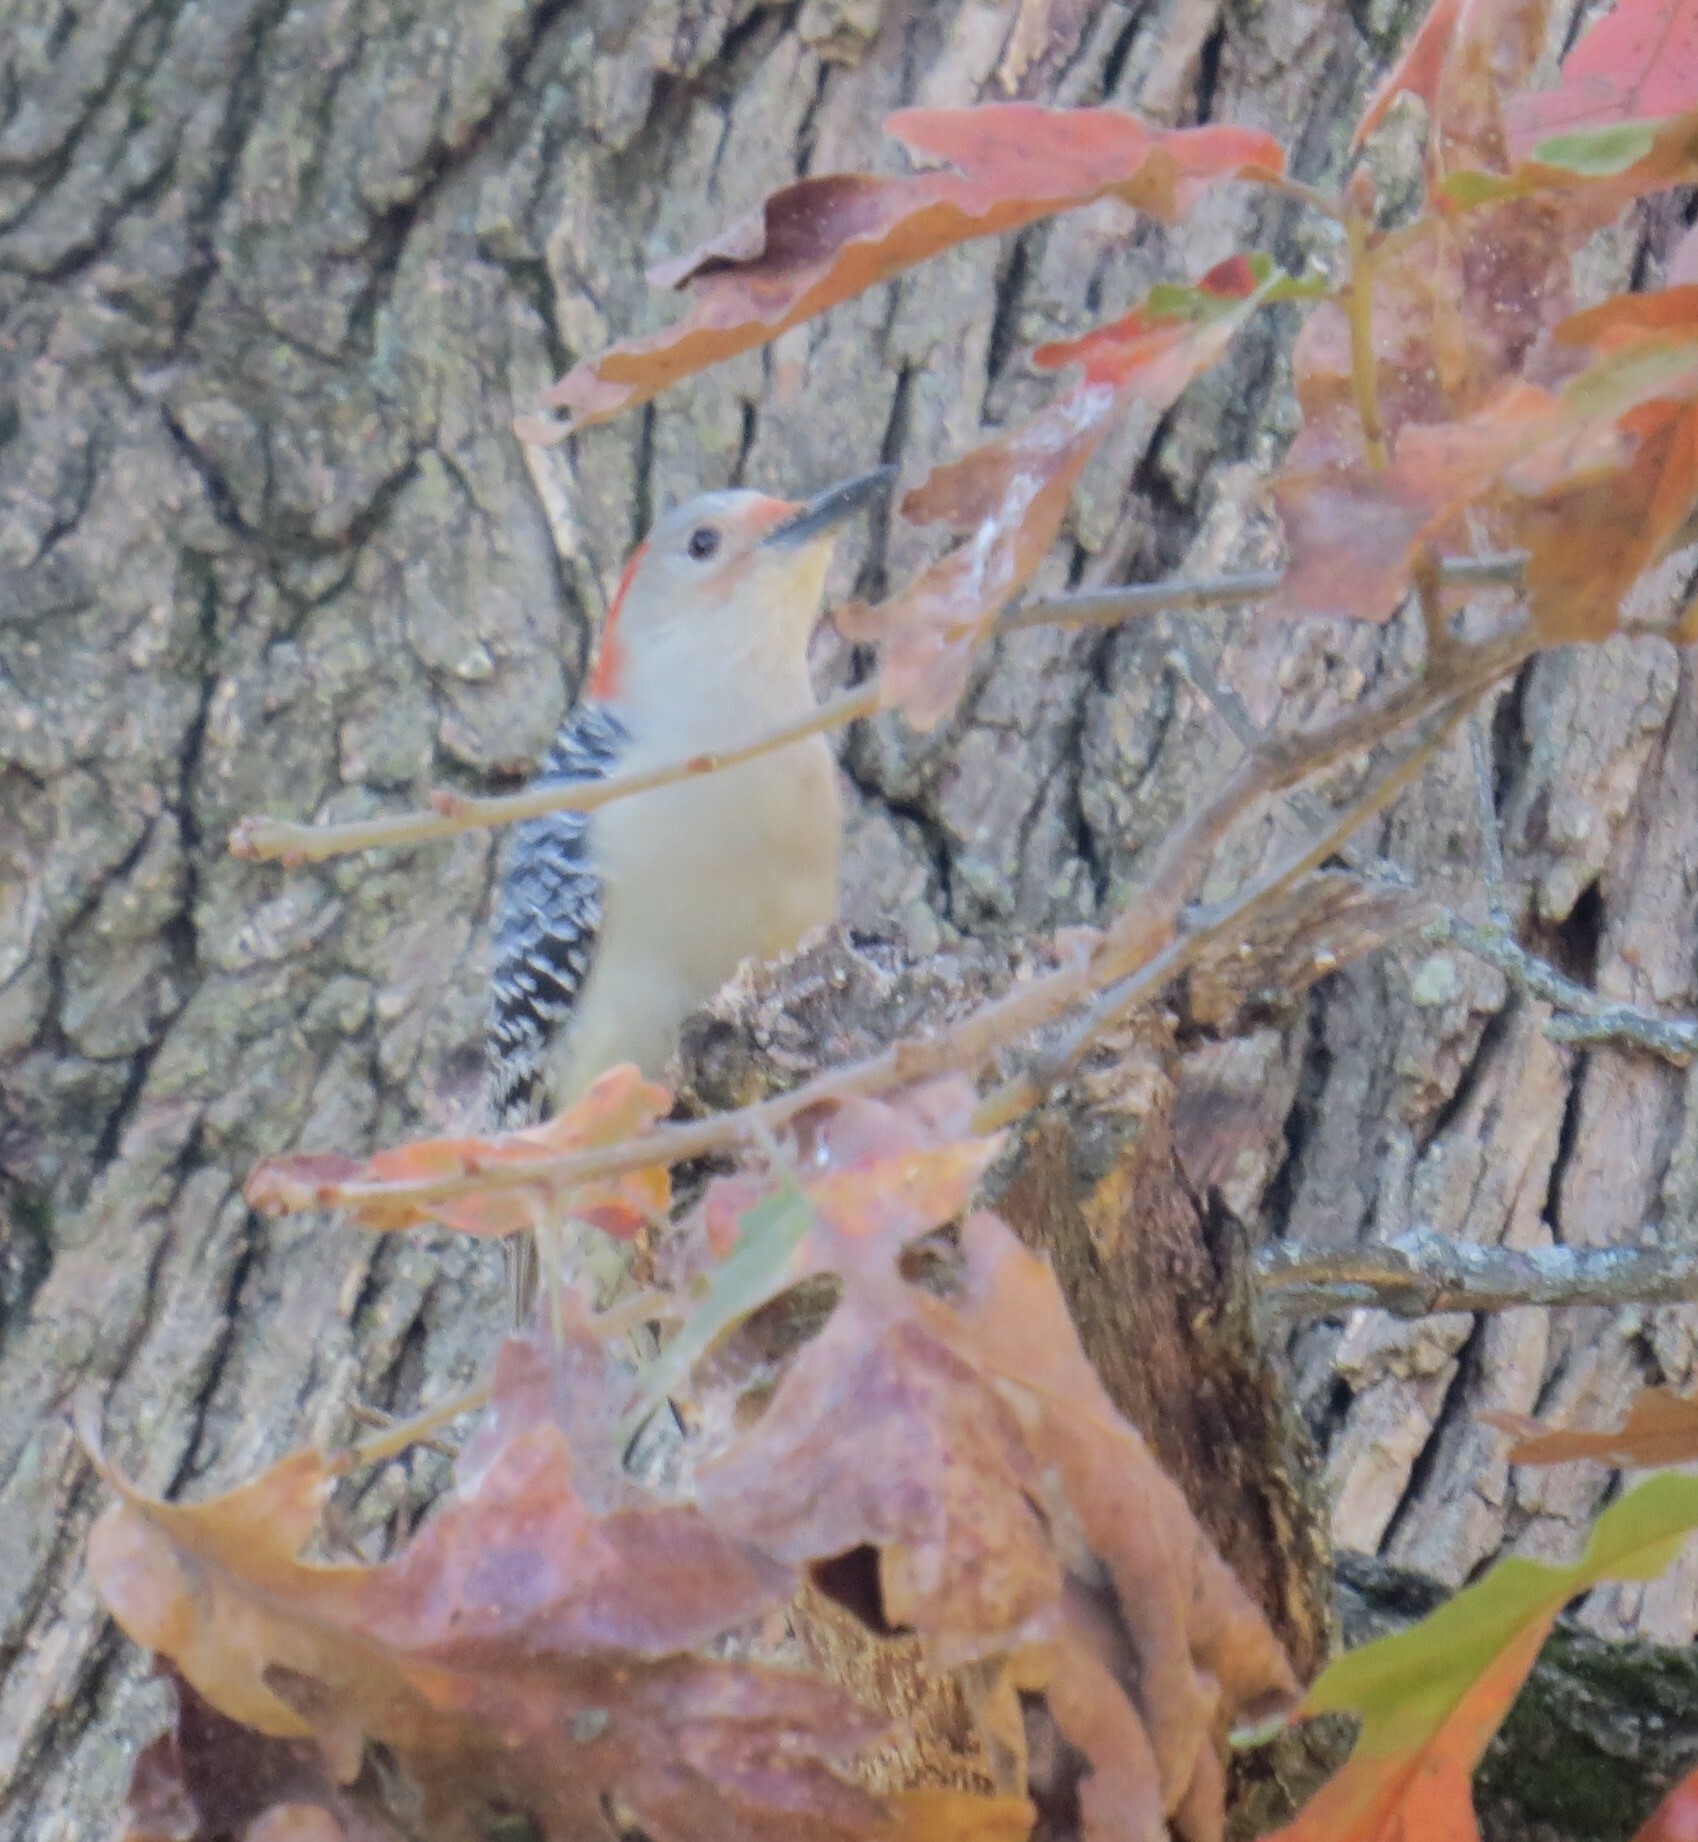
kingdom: Animalia
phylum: Chordata
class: Aves
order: Piciformes
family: Picidae
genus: Melanerpes
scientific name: Melanerpes carolinus
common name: Red-bellied woodpecker
